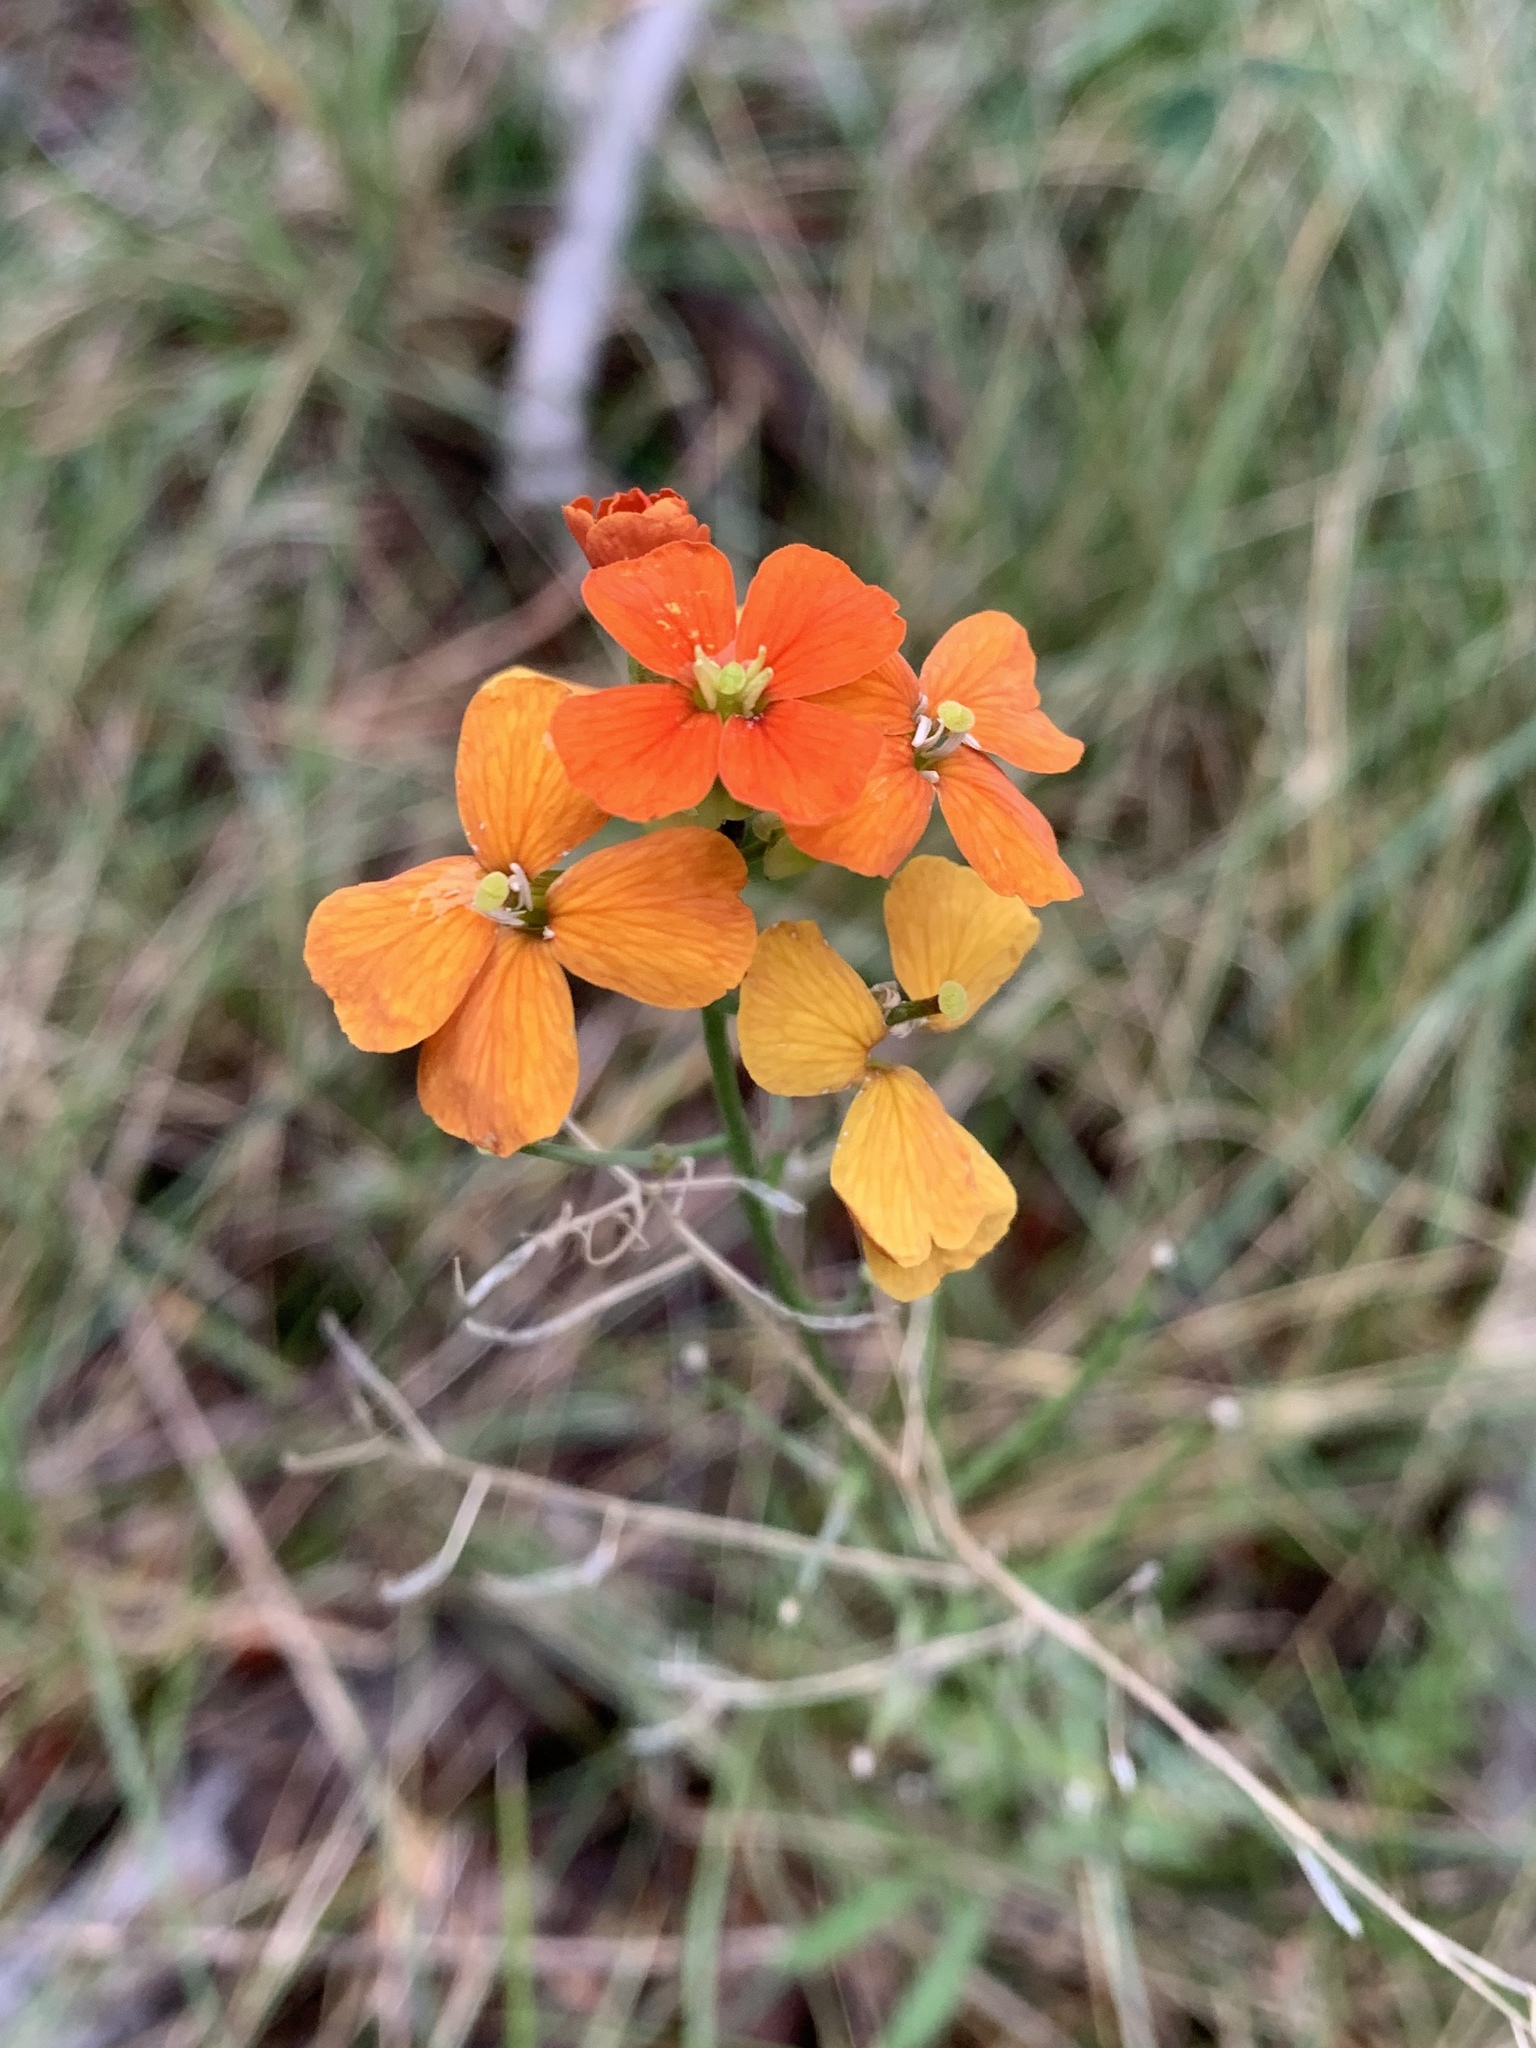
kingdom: Plantae
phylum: Tracheophyta
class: Magnoliopsida
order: Brassicales
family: Brassicaceae
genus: Erysimum
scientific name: Erysimum capitatum
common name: Western wallflower
